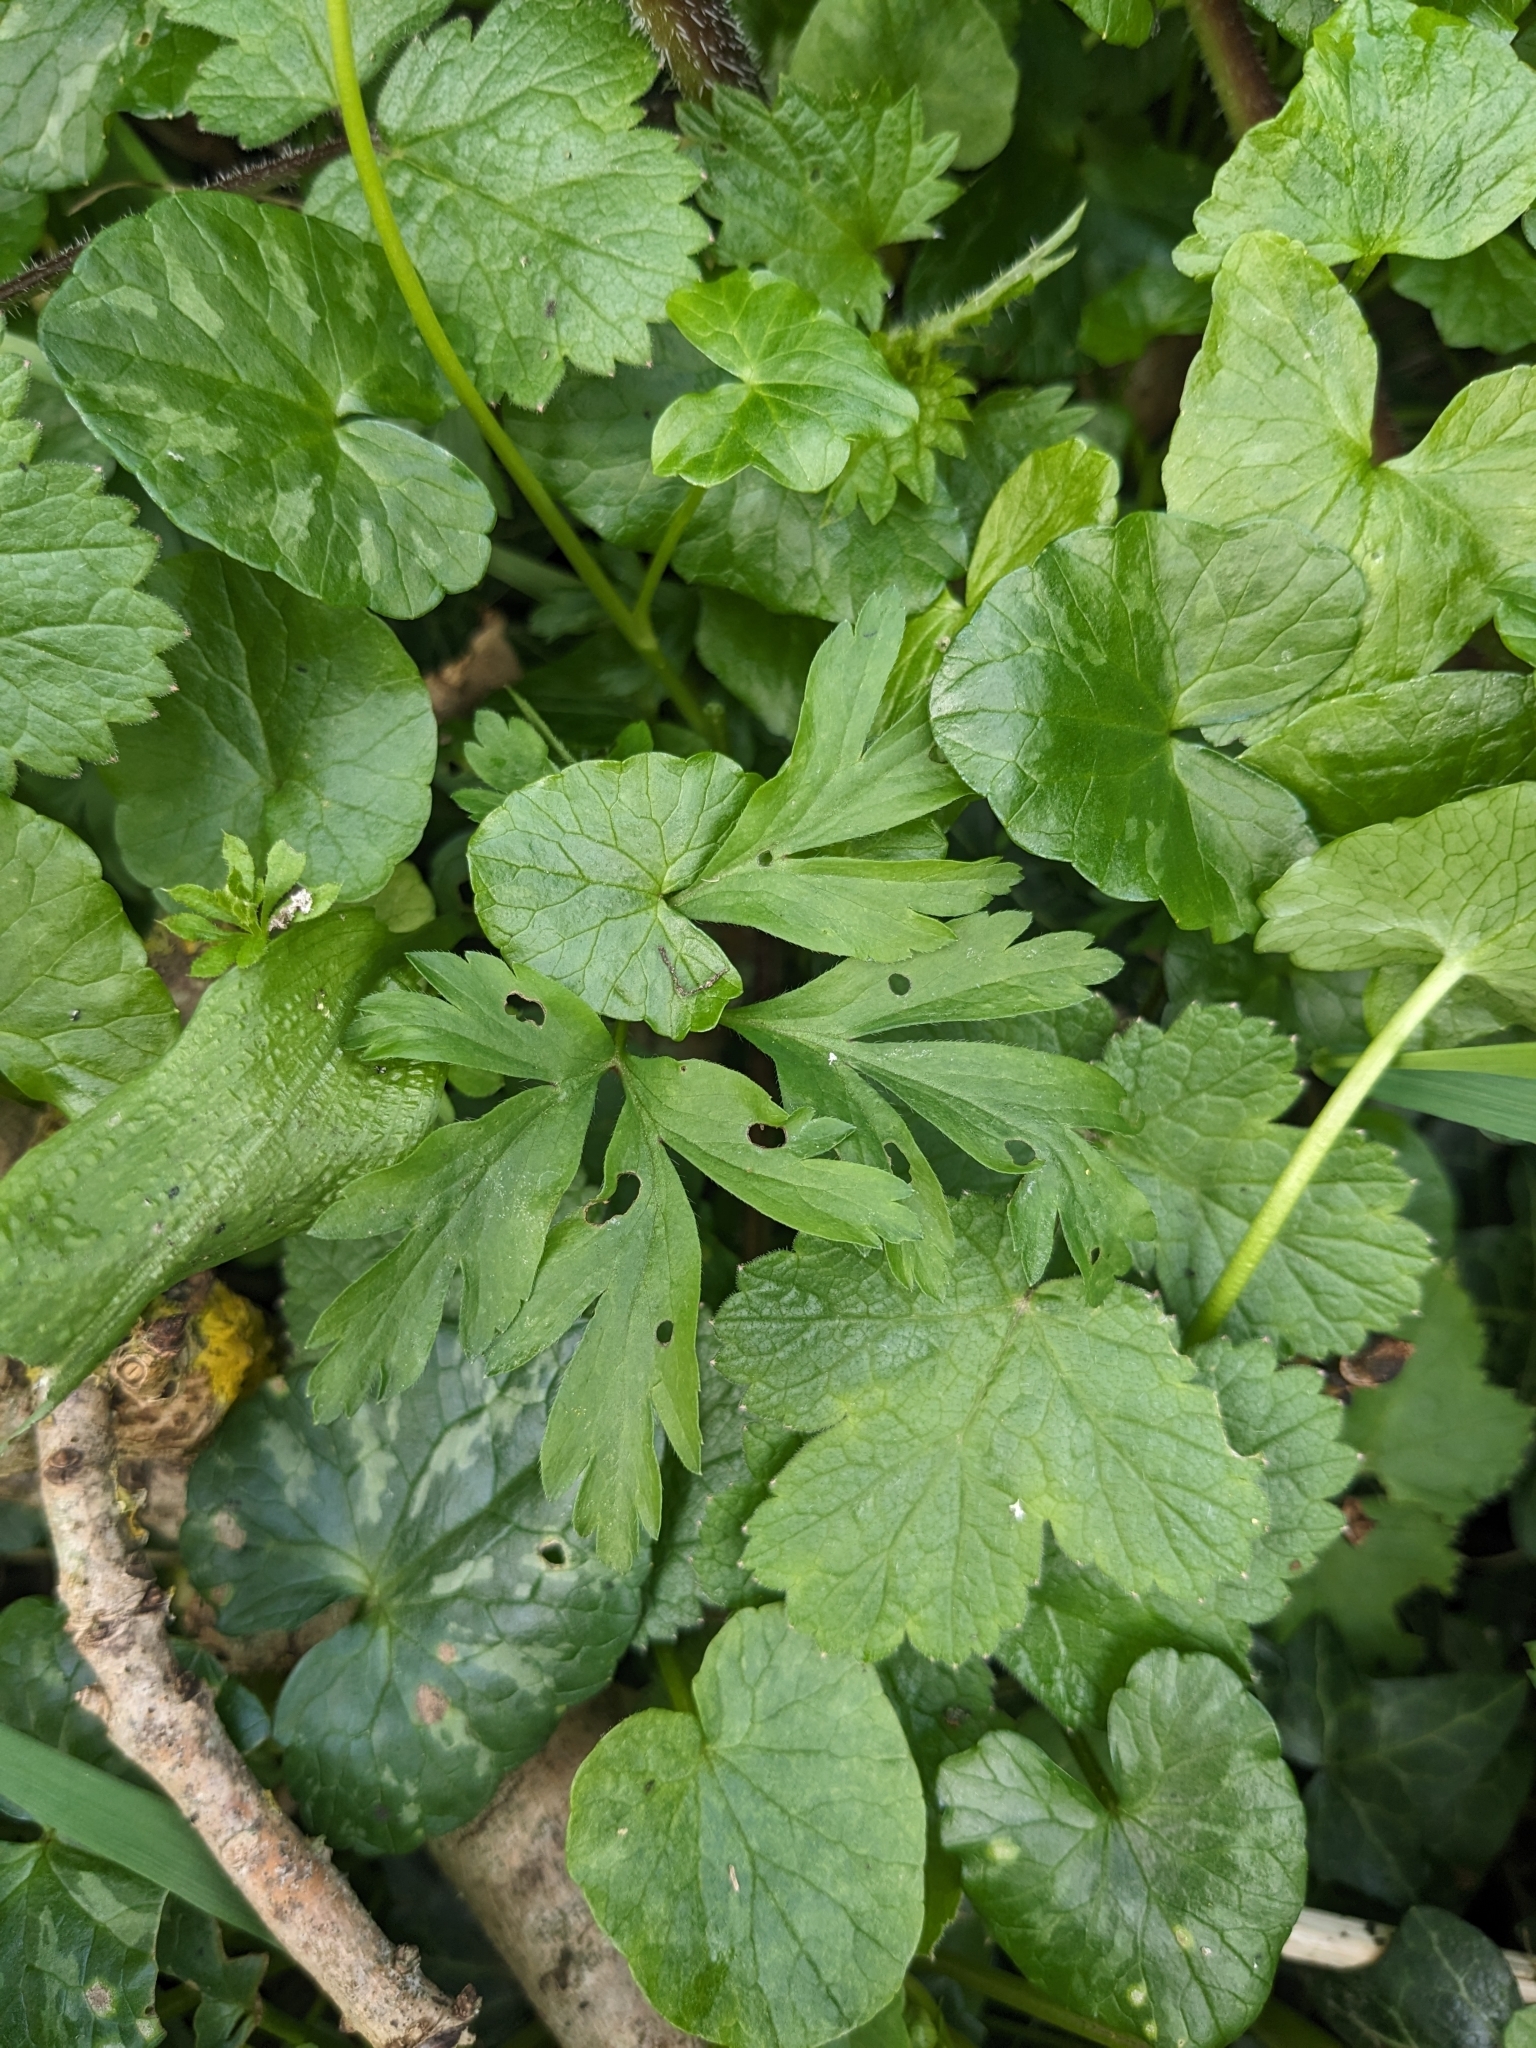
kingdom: Plantae
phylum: Tracheophyta
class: Magnoliopsida
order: Ranunculales
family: Ranunculaceae
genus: Anemone
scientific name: Anemone nemorosa
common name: Wood anemone
